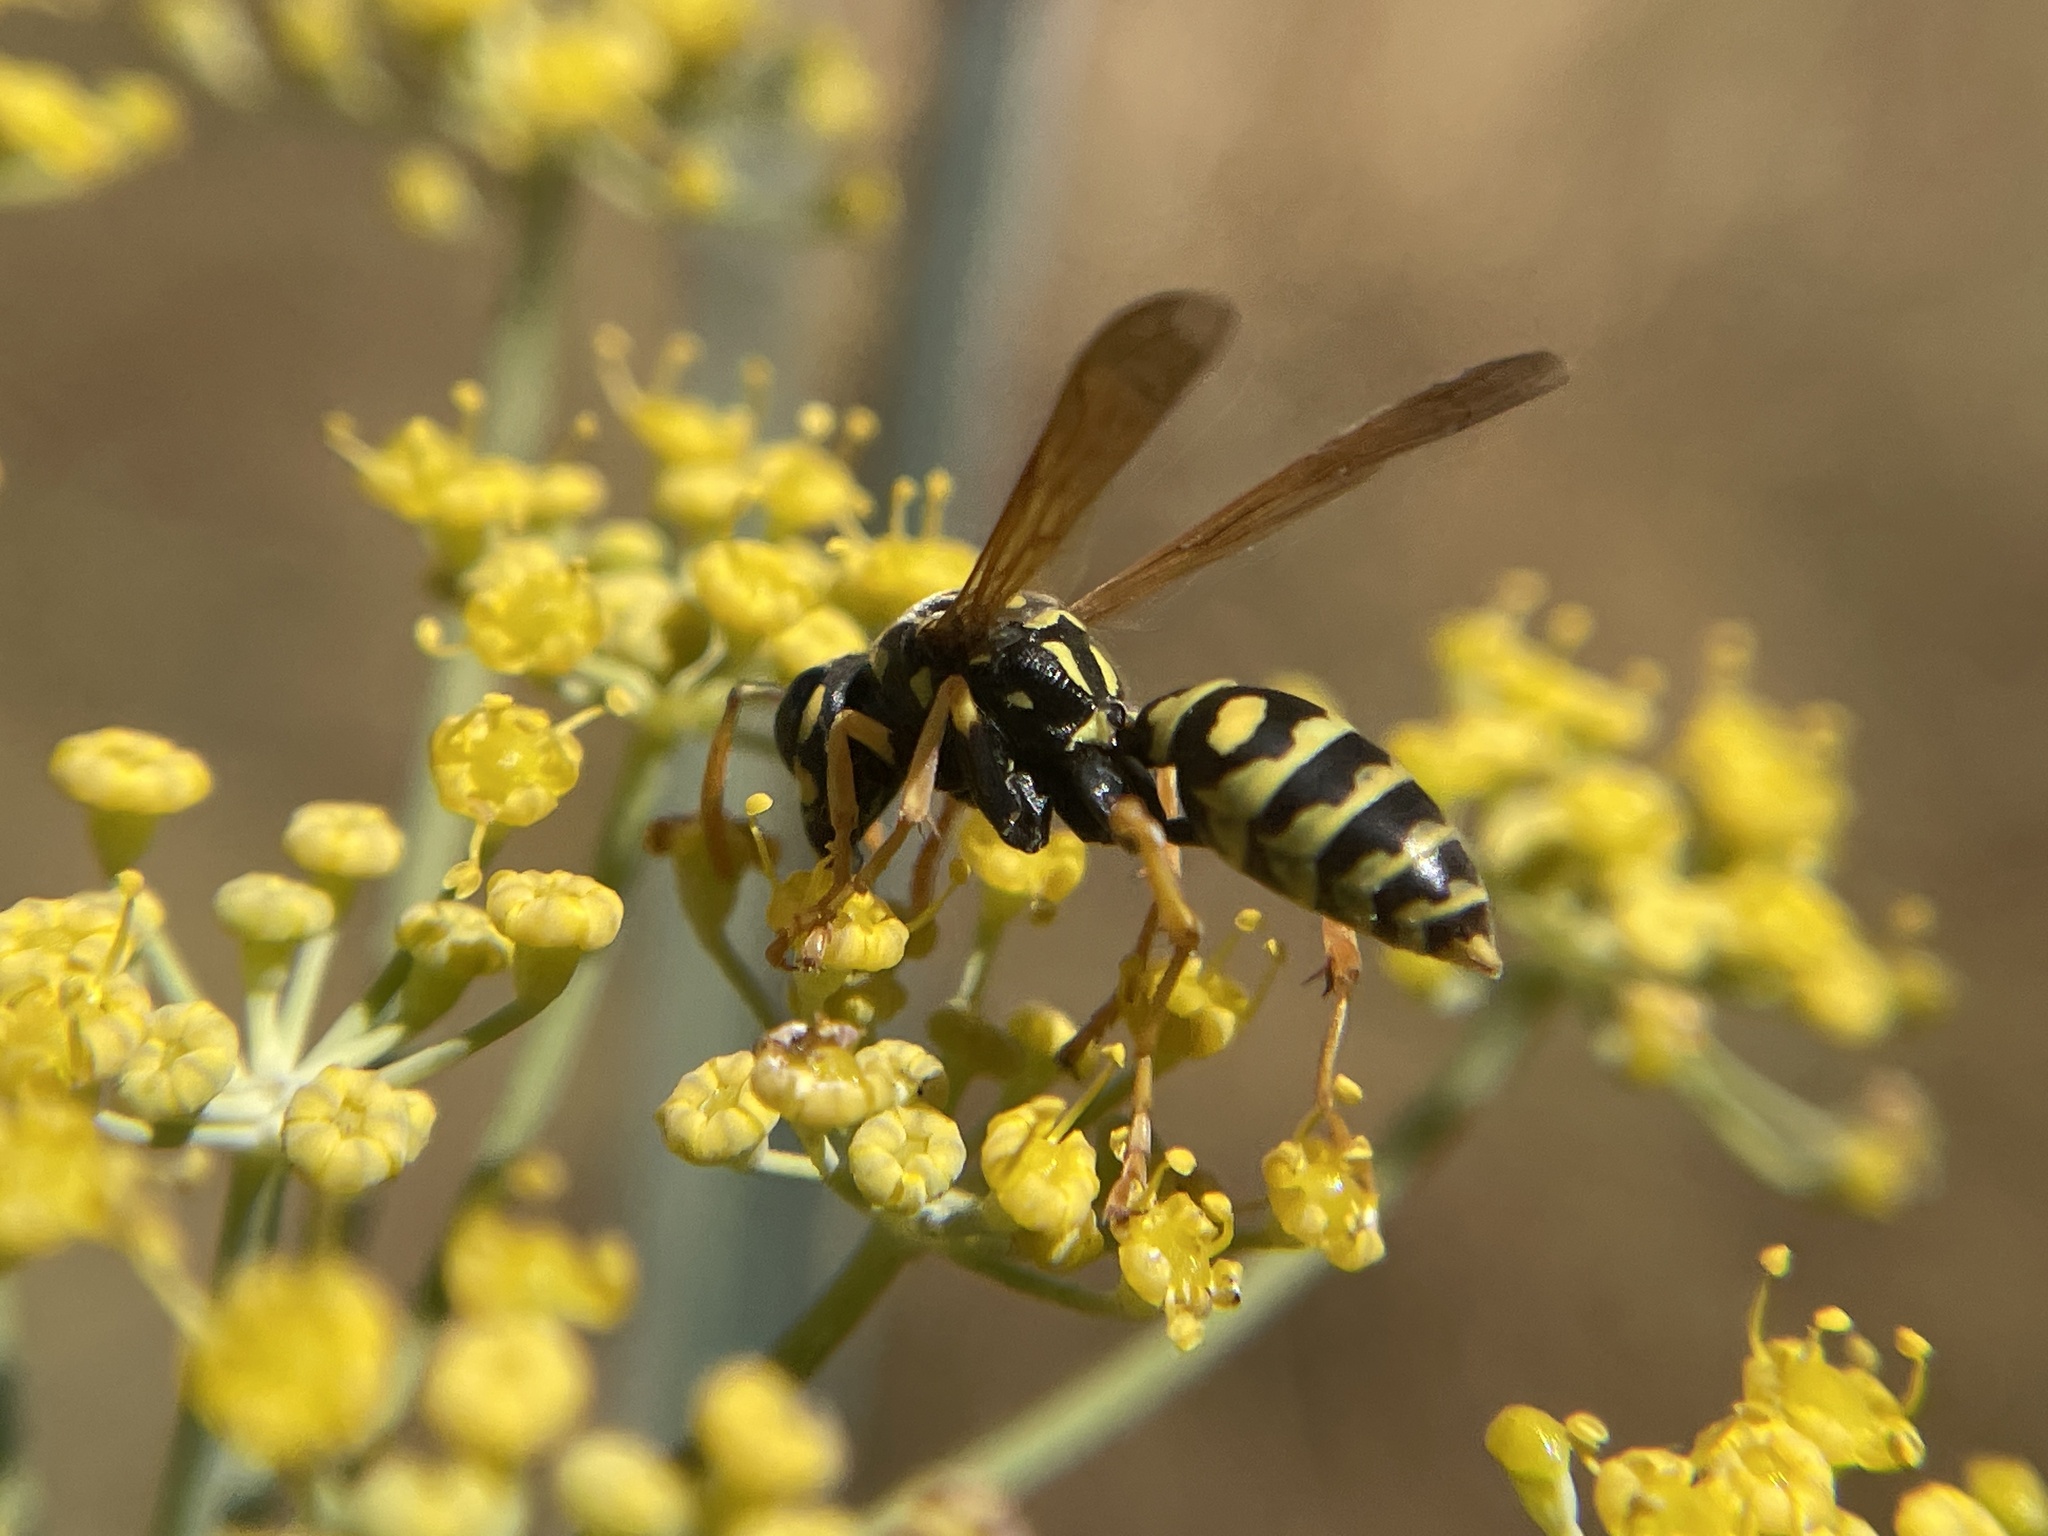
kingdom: Animalia
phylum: Arthropoda
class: Insecta
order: Hymenoptera
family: Eumenidae
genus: Polistes
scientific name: Polistes dominula
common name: Paper wasp
